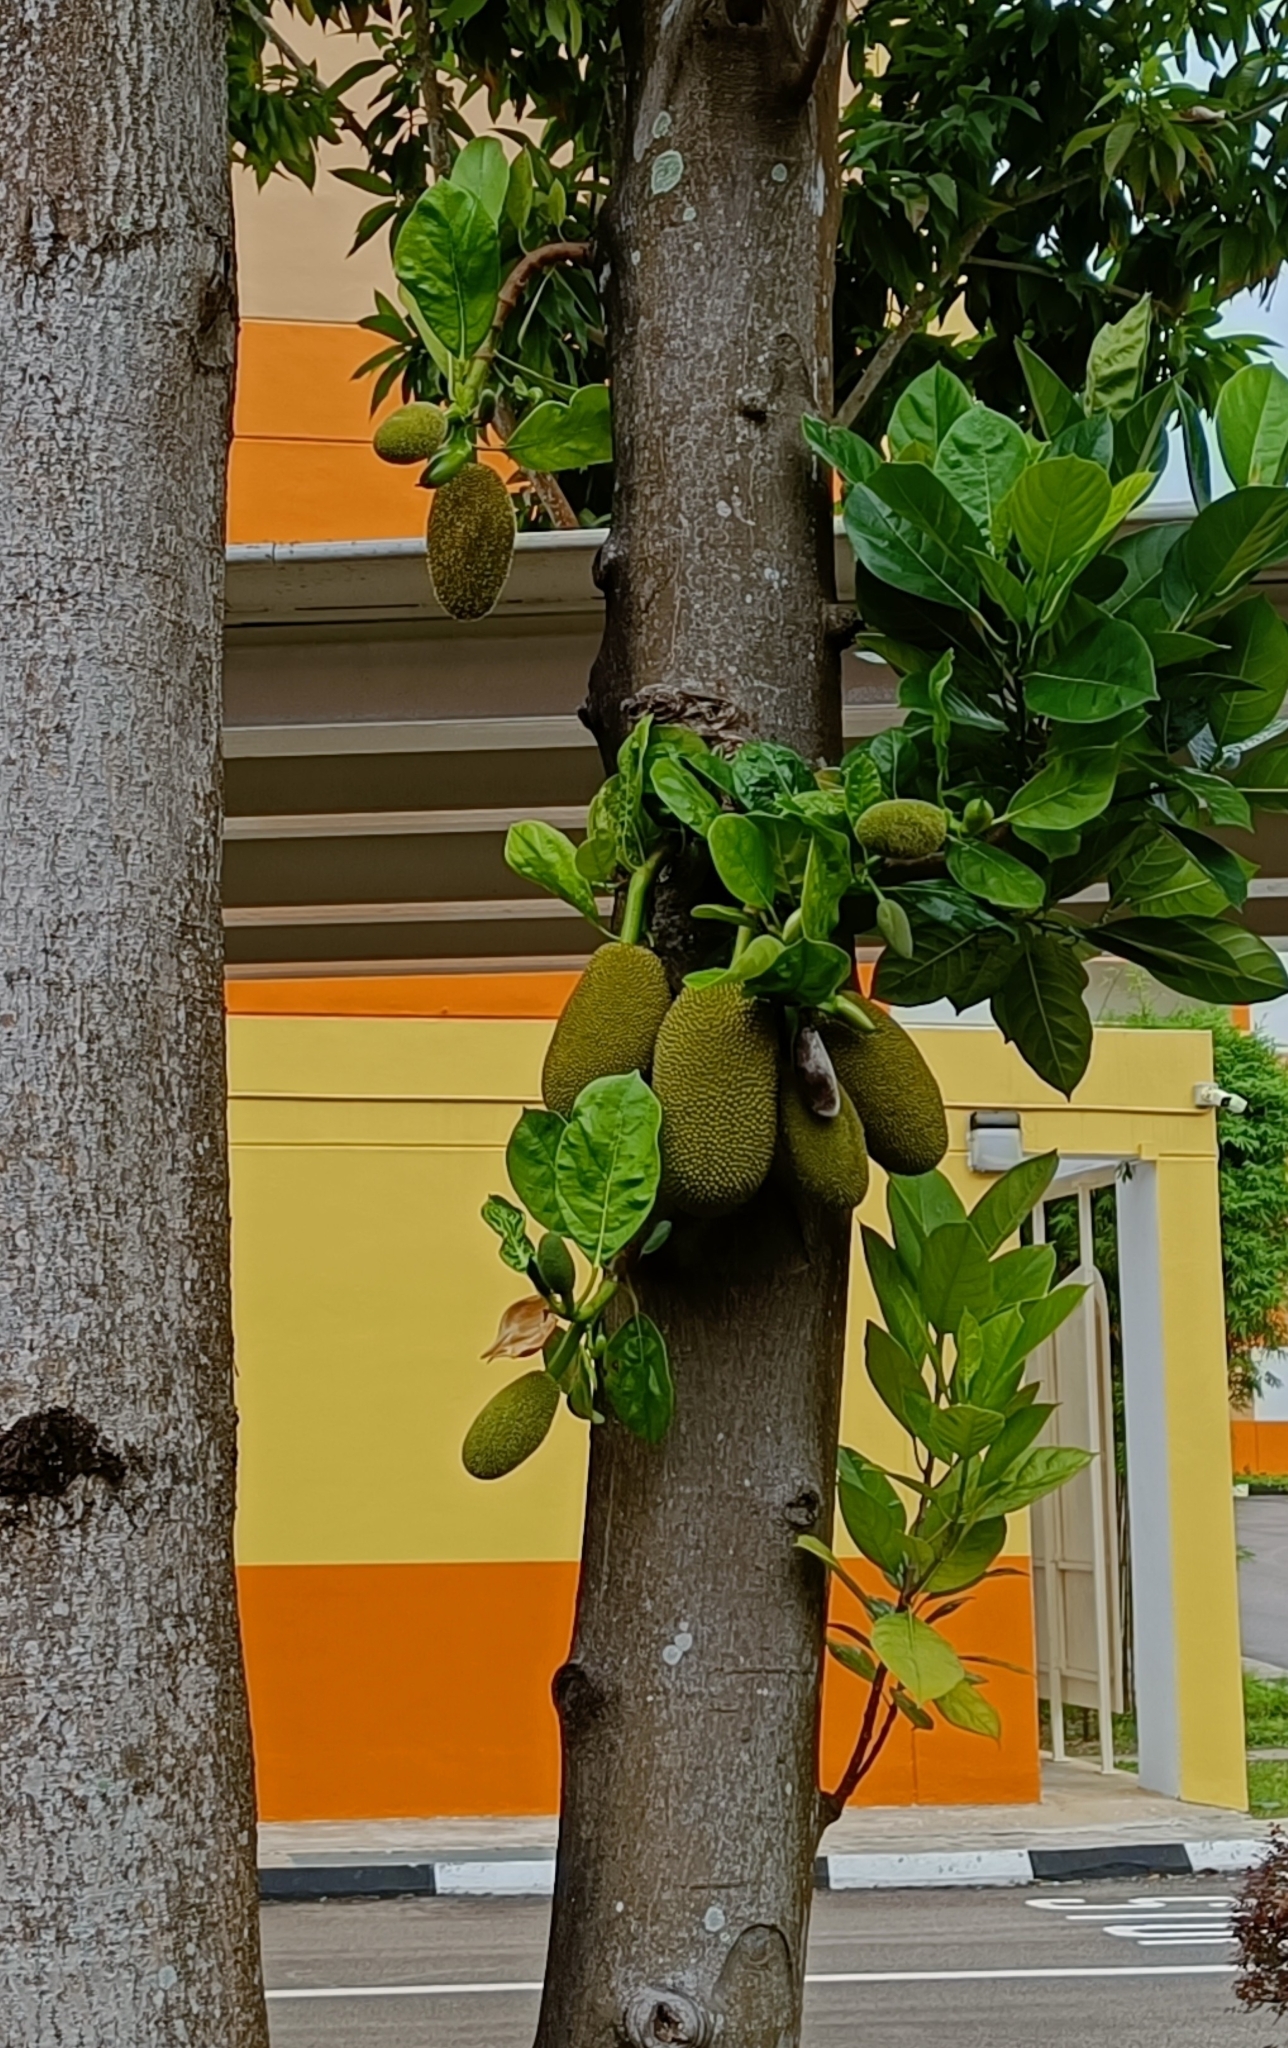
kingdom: Plantae
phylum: Tracheophyta
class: Magnoliopsida
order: Rosales
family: Moraceae
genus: Artocarpus
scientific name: Artocarpus heterophyllus
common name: Jackfruit
